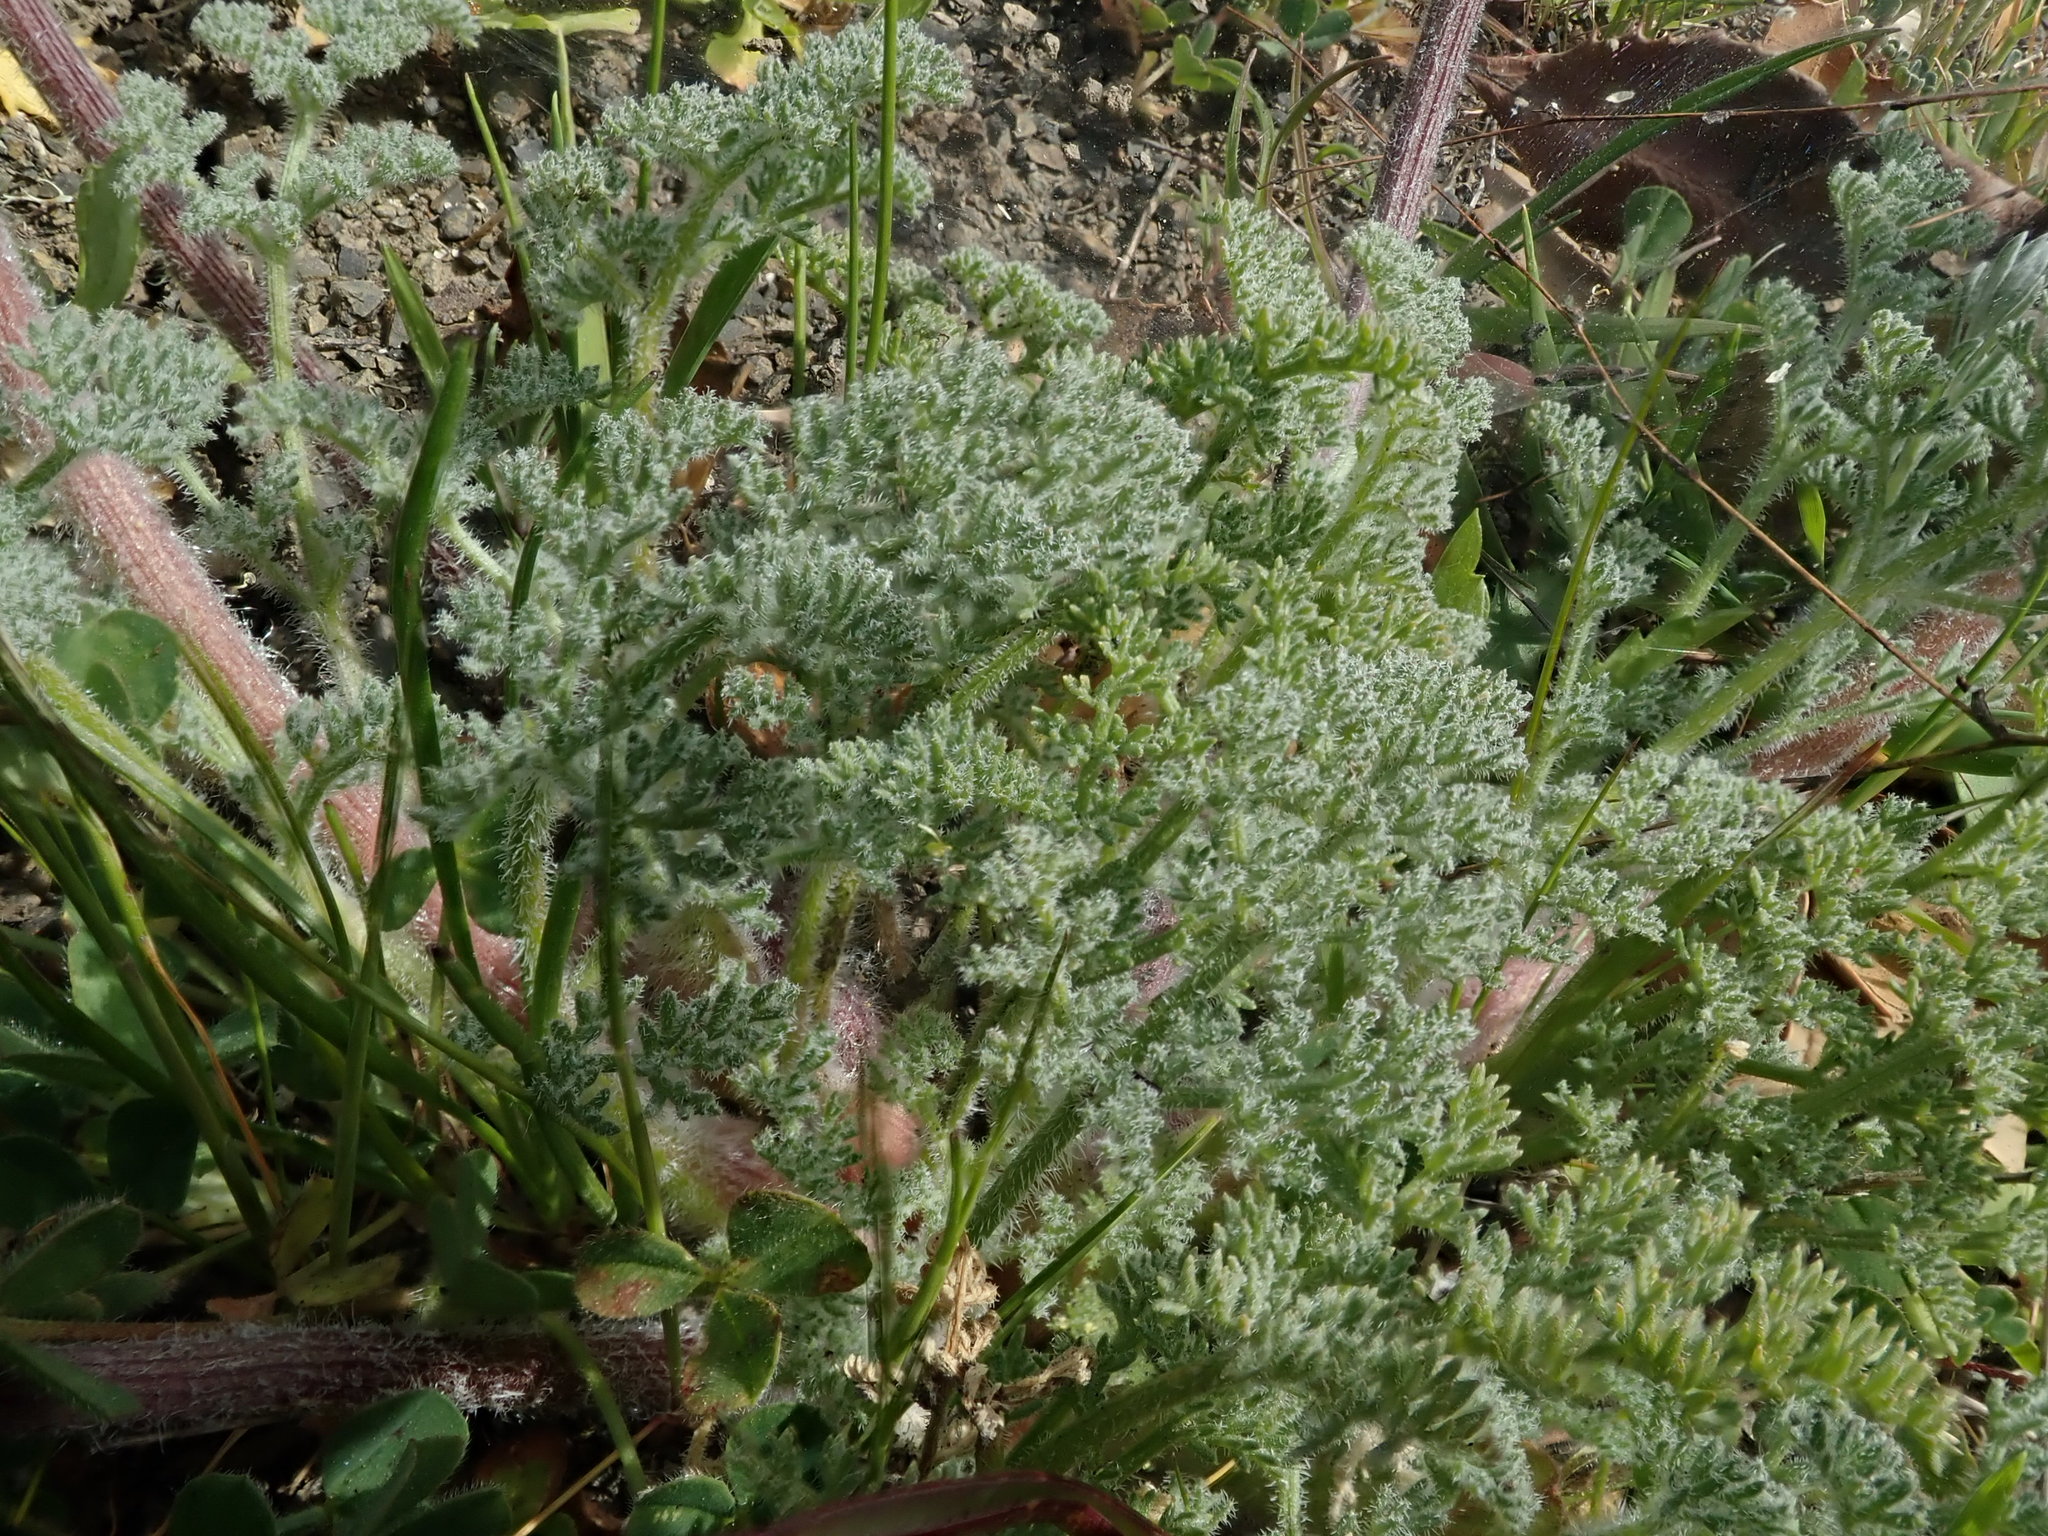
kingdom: Plantae
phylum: Tracheophyta
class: Magnoliopsida
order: Apiales
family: Apiaceae
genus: Lomatium
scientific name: Lomatium dasycarpum
